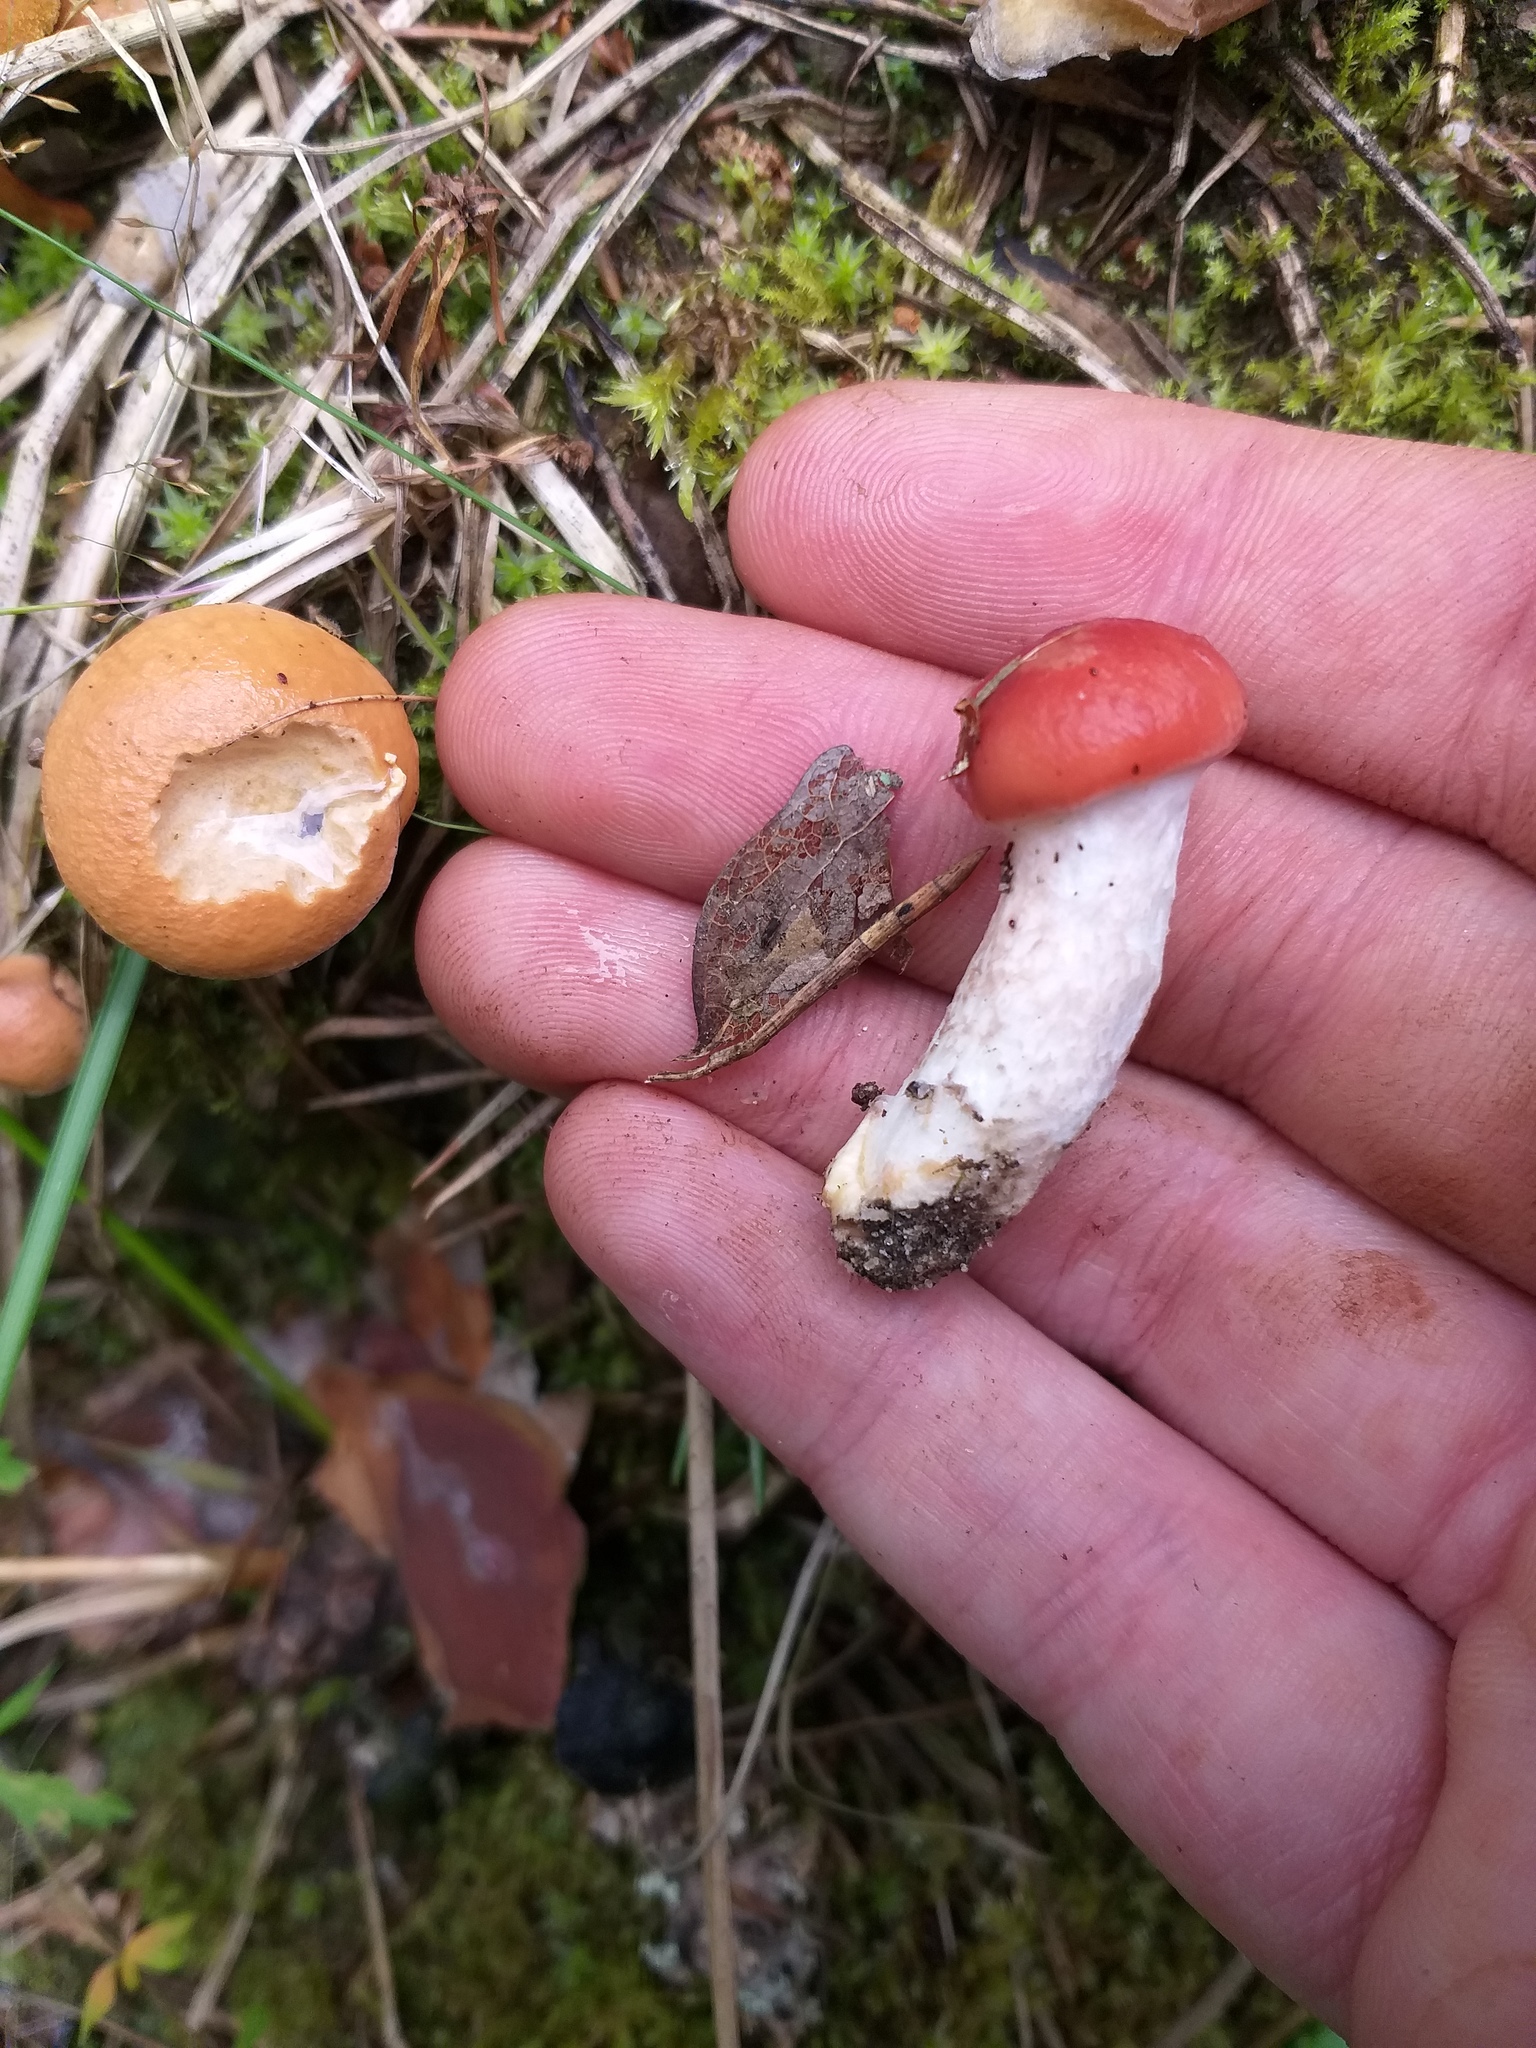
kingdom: Fungi
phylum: Basidiomycota
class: Agaricomycetes
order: Boletales
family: Gomphidiaceae
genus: Gomphidius
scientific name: Gomphidius roseus
